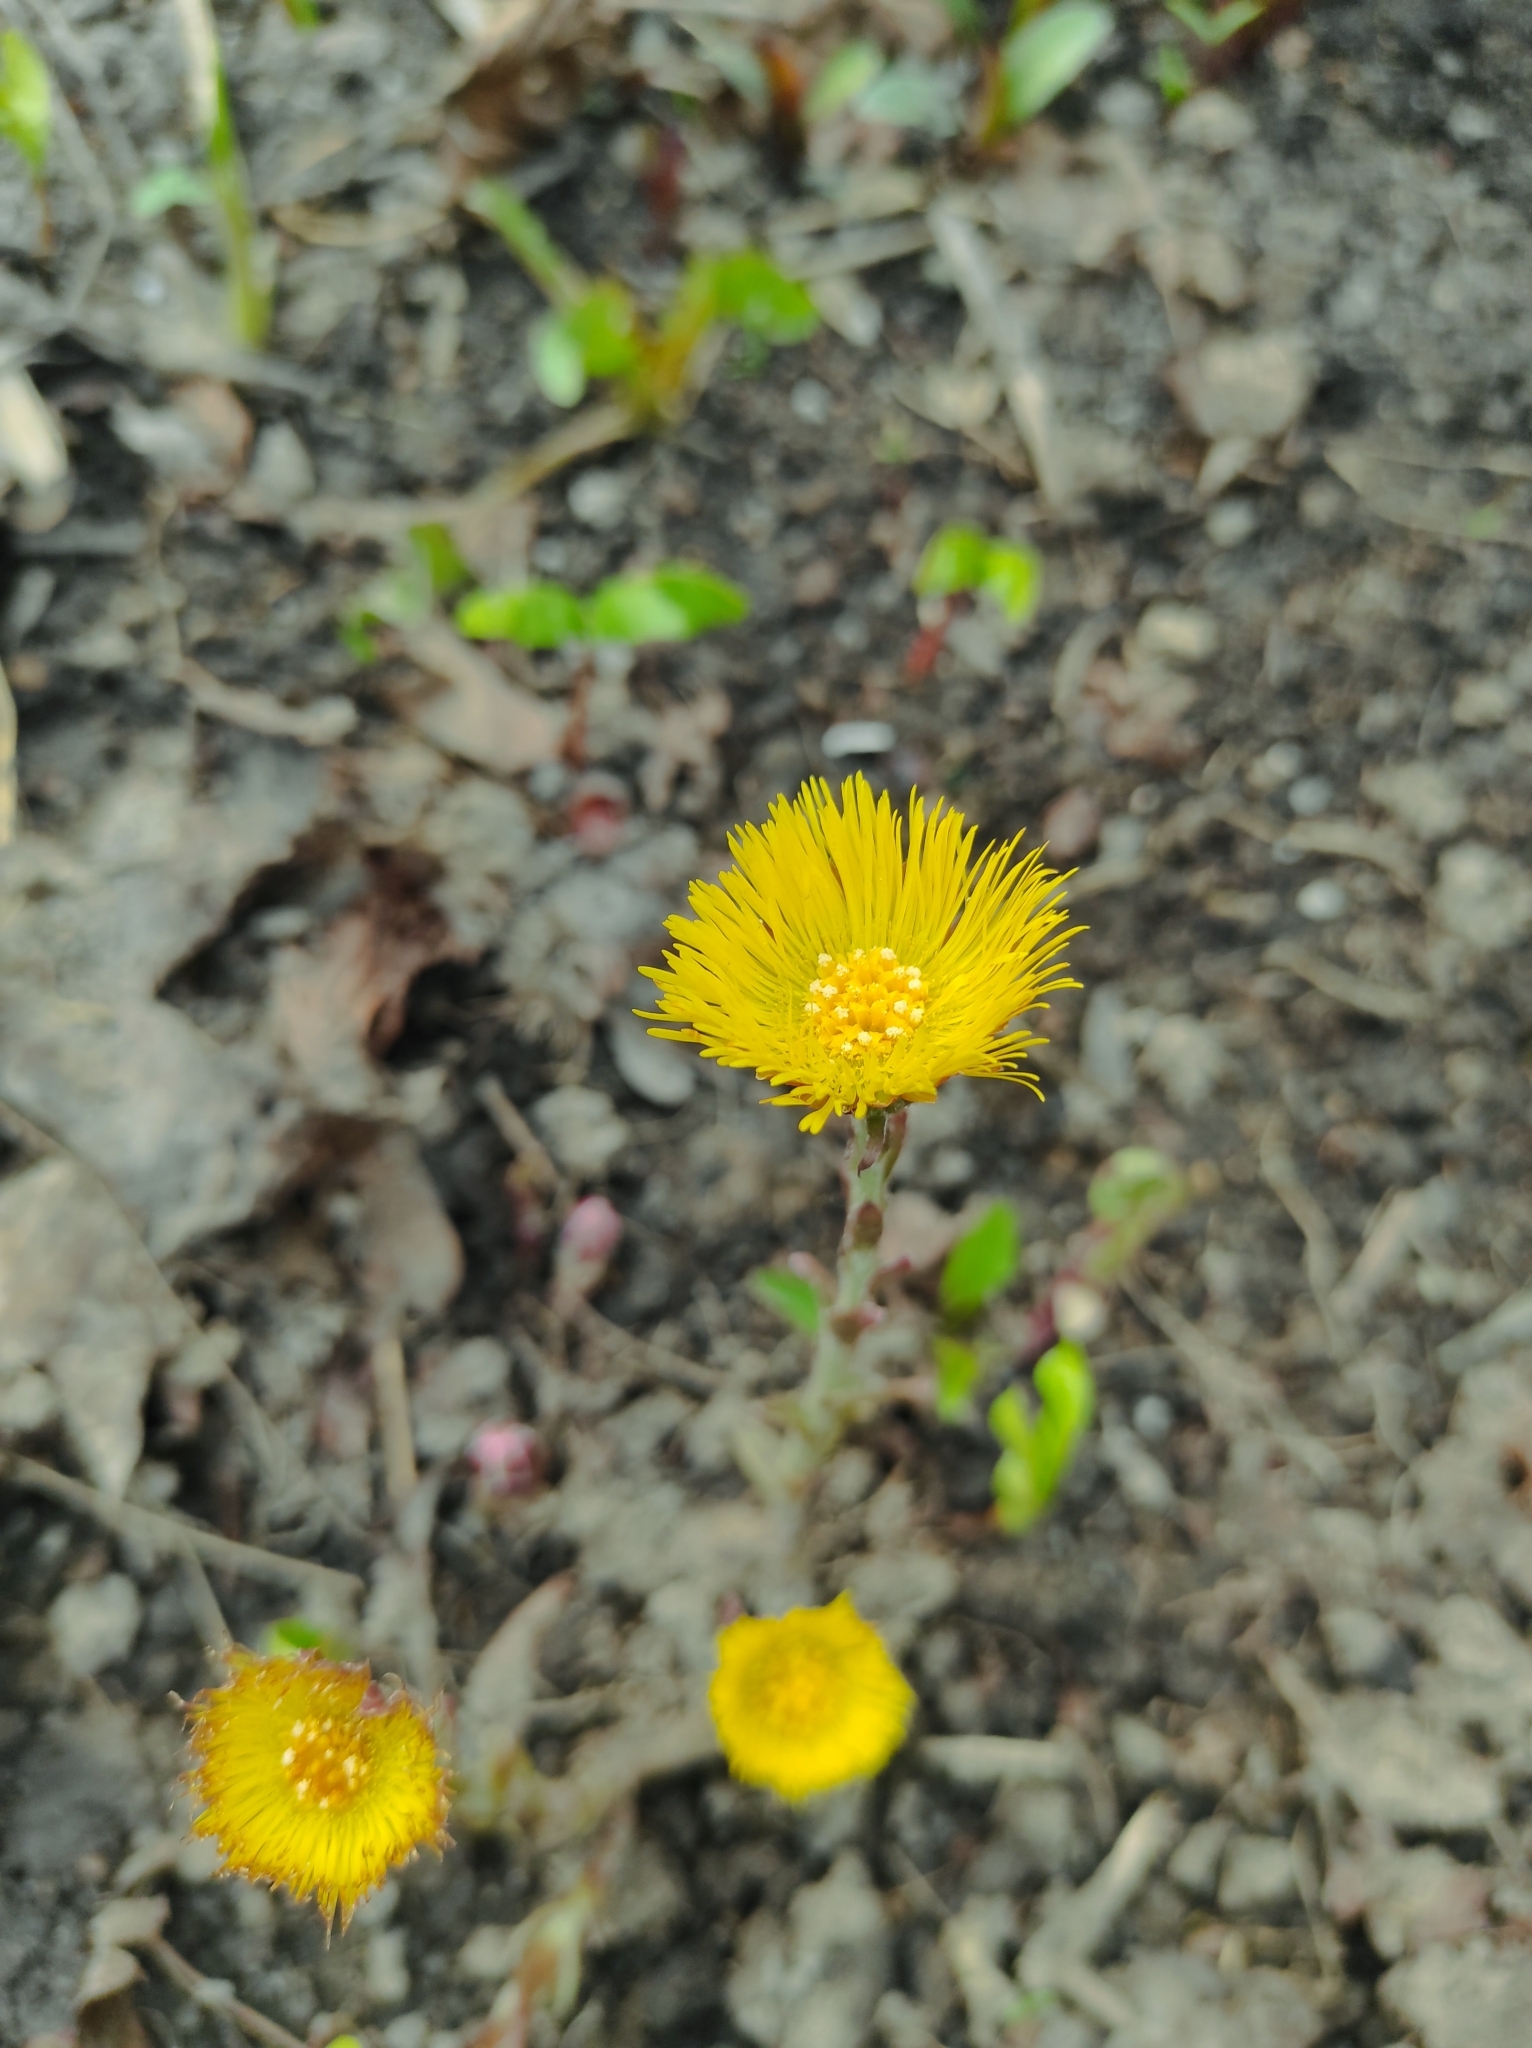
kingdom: Plantae
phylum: Tracheophyta
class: Magnoliopsida
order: Asterales
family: Asteraceae
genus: Tussilago
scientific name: Tussilago farfara
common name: Coltsfoot
